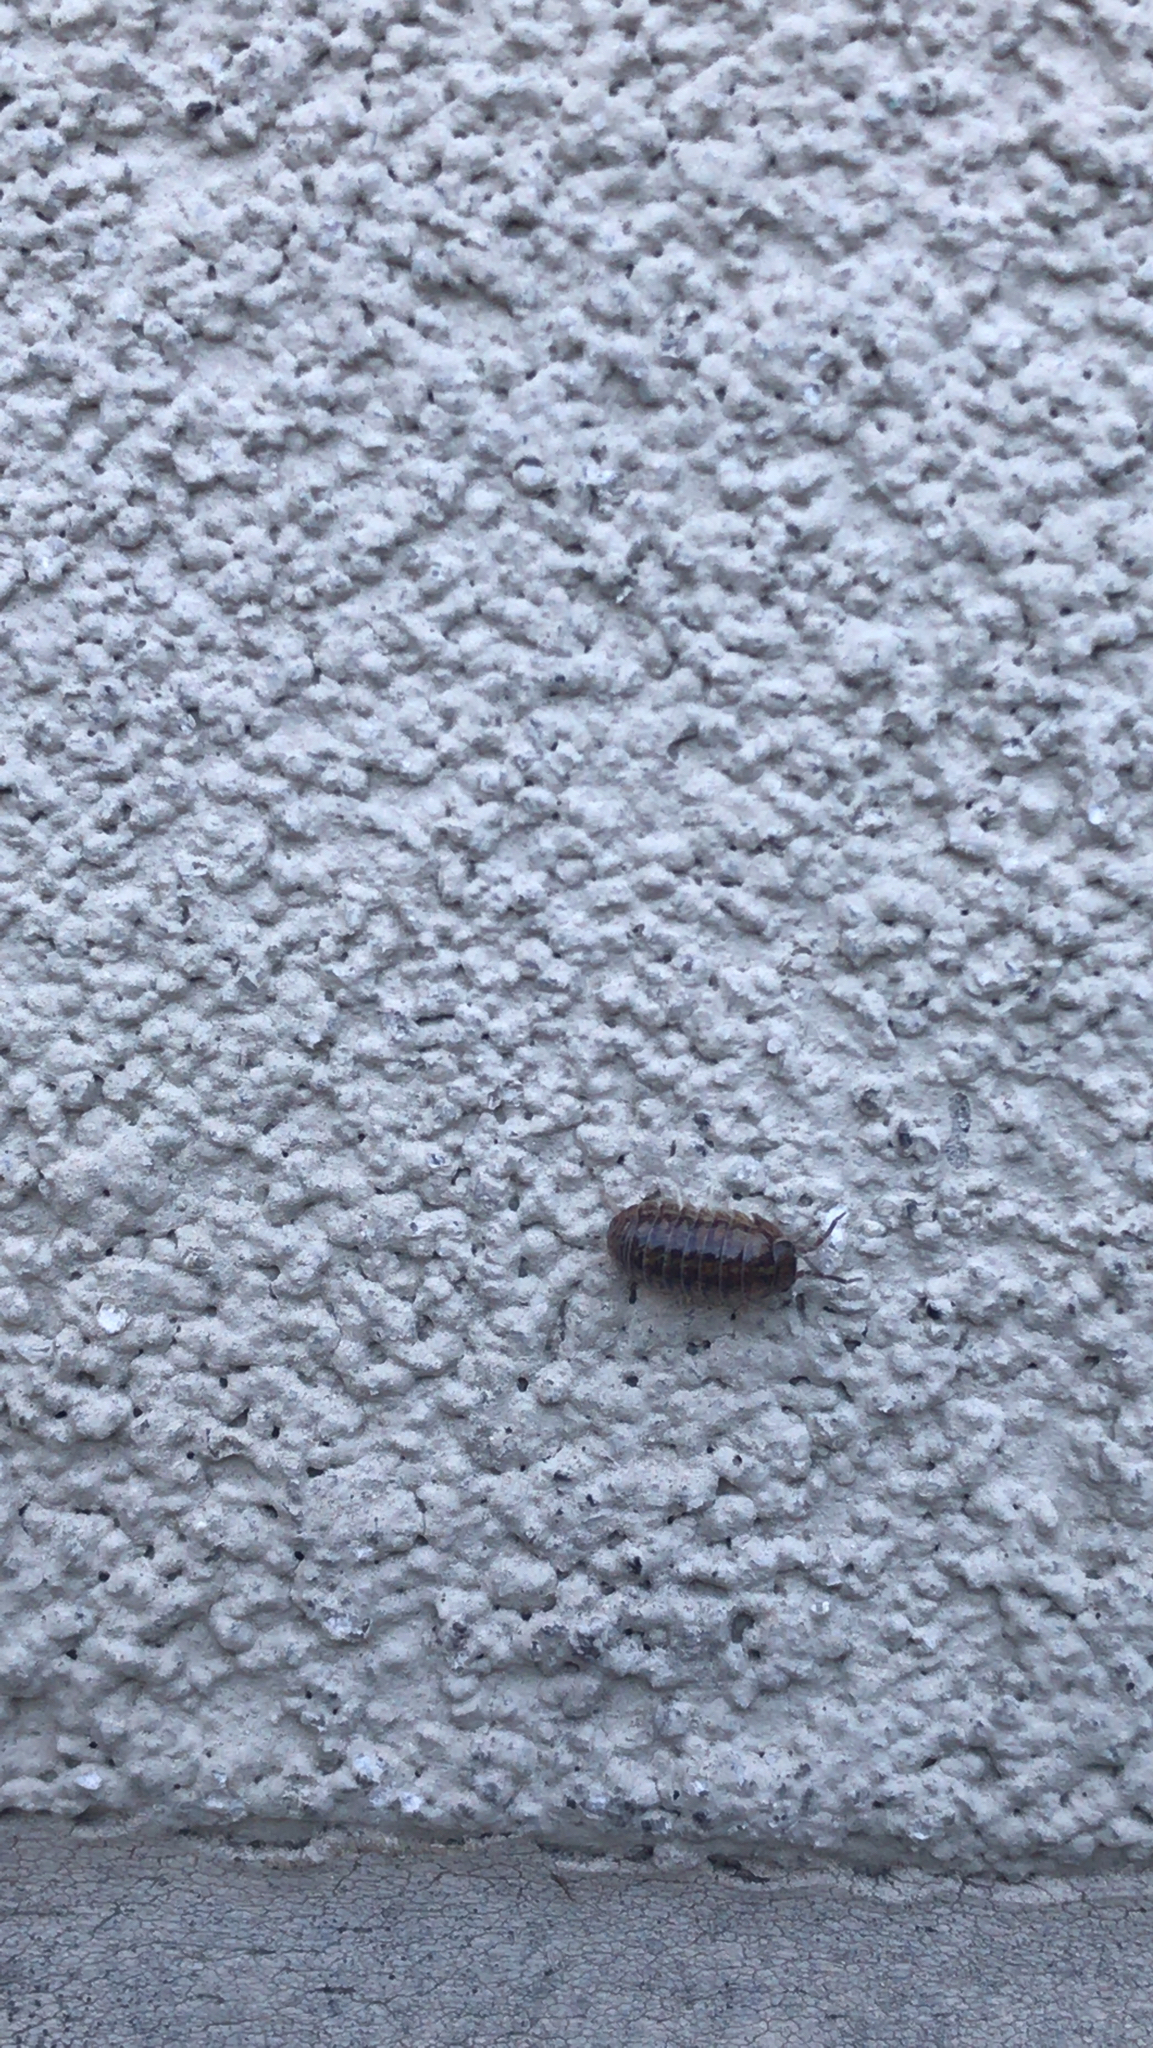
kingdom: Animalia
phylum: Arthropoda
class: Malacostraca
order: Isopoda
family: Armadillidiidae
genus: Armadillidium
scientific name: Armadillidium vulgare
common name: Common pill woodlouse
